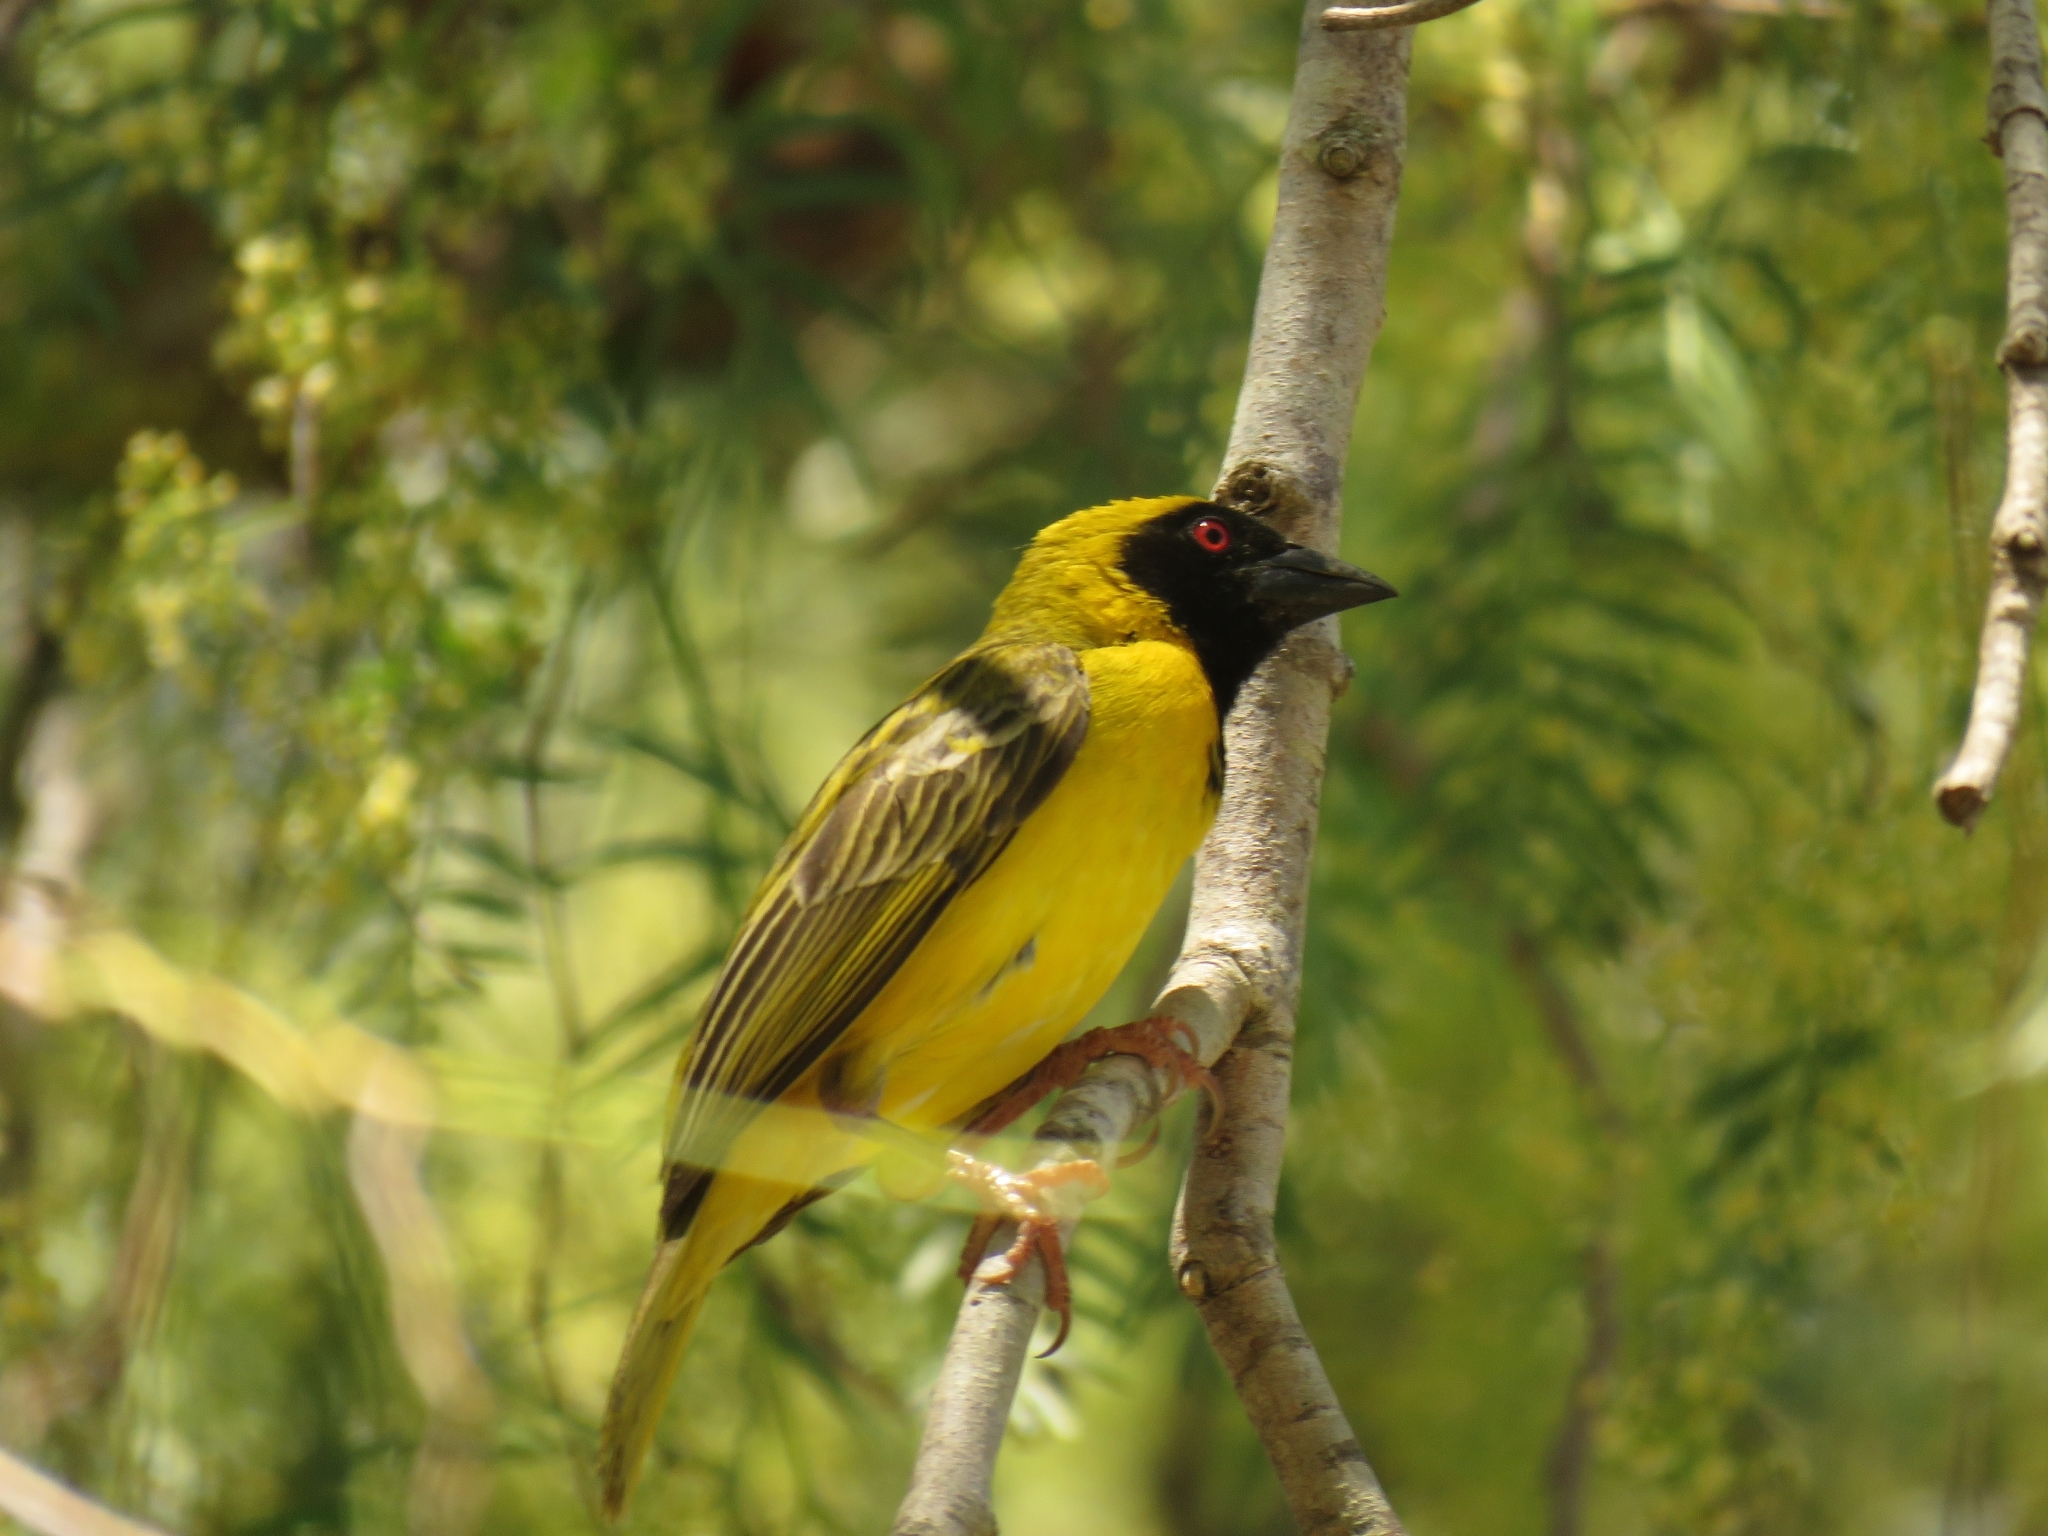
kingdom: Animalia
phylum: Chordata
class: Aves
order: Passeriformes
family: Ploceidae
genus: Ploceus
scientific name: Ploceus velatus
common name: Southern masked weaver
